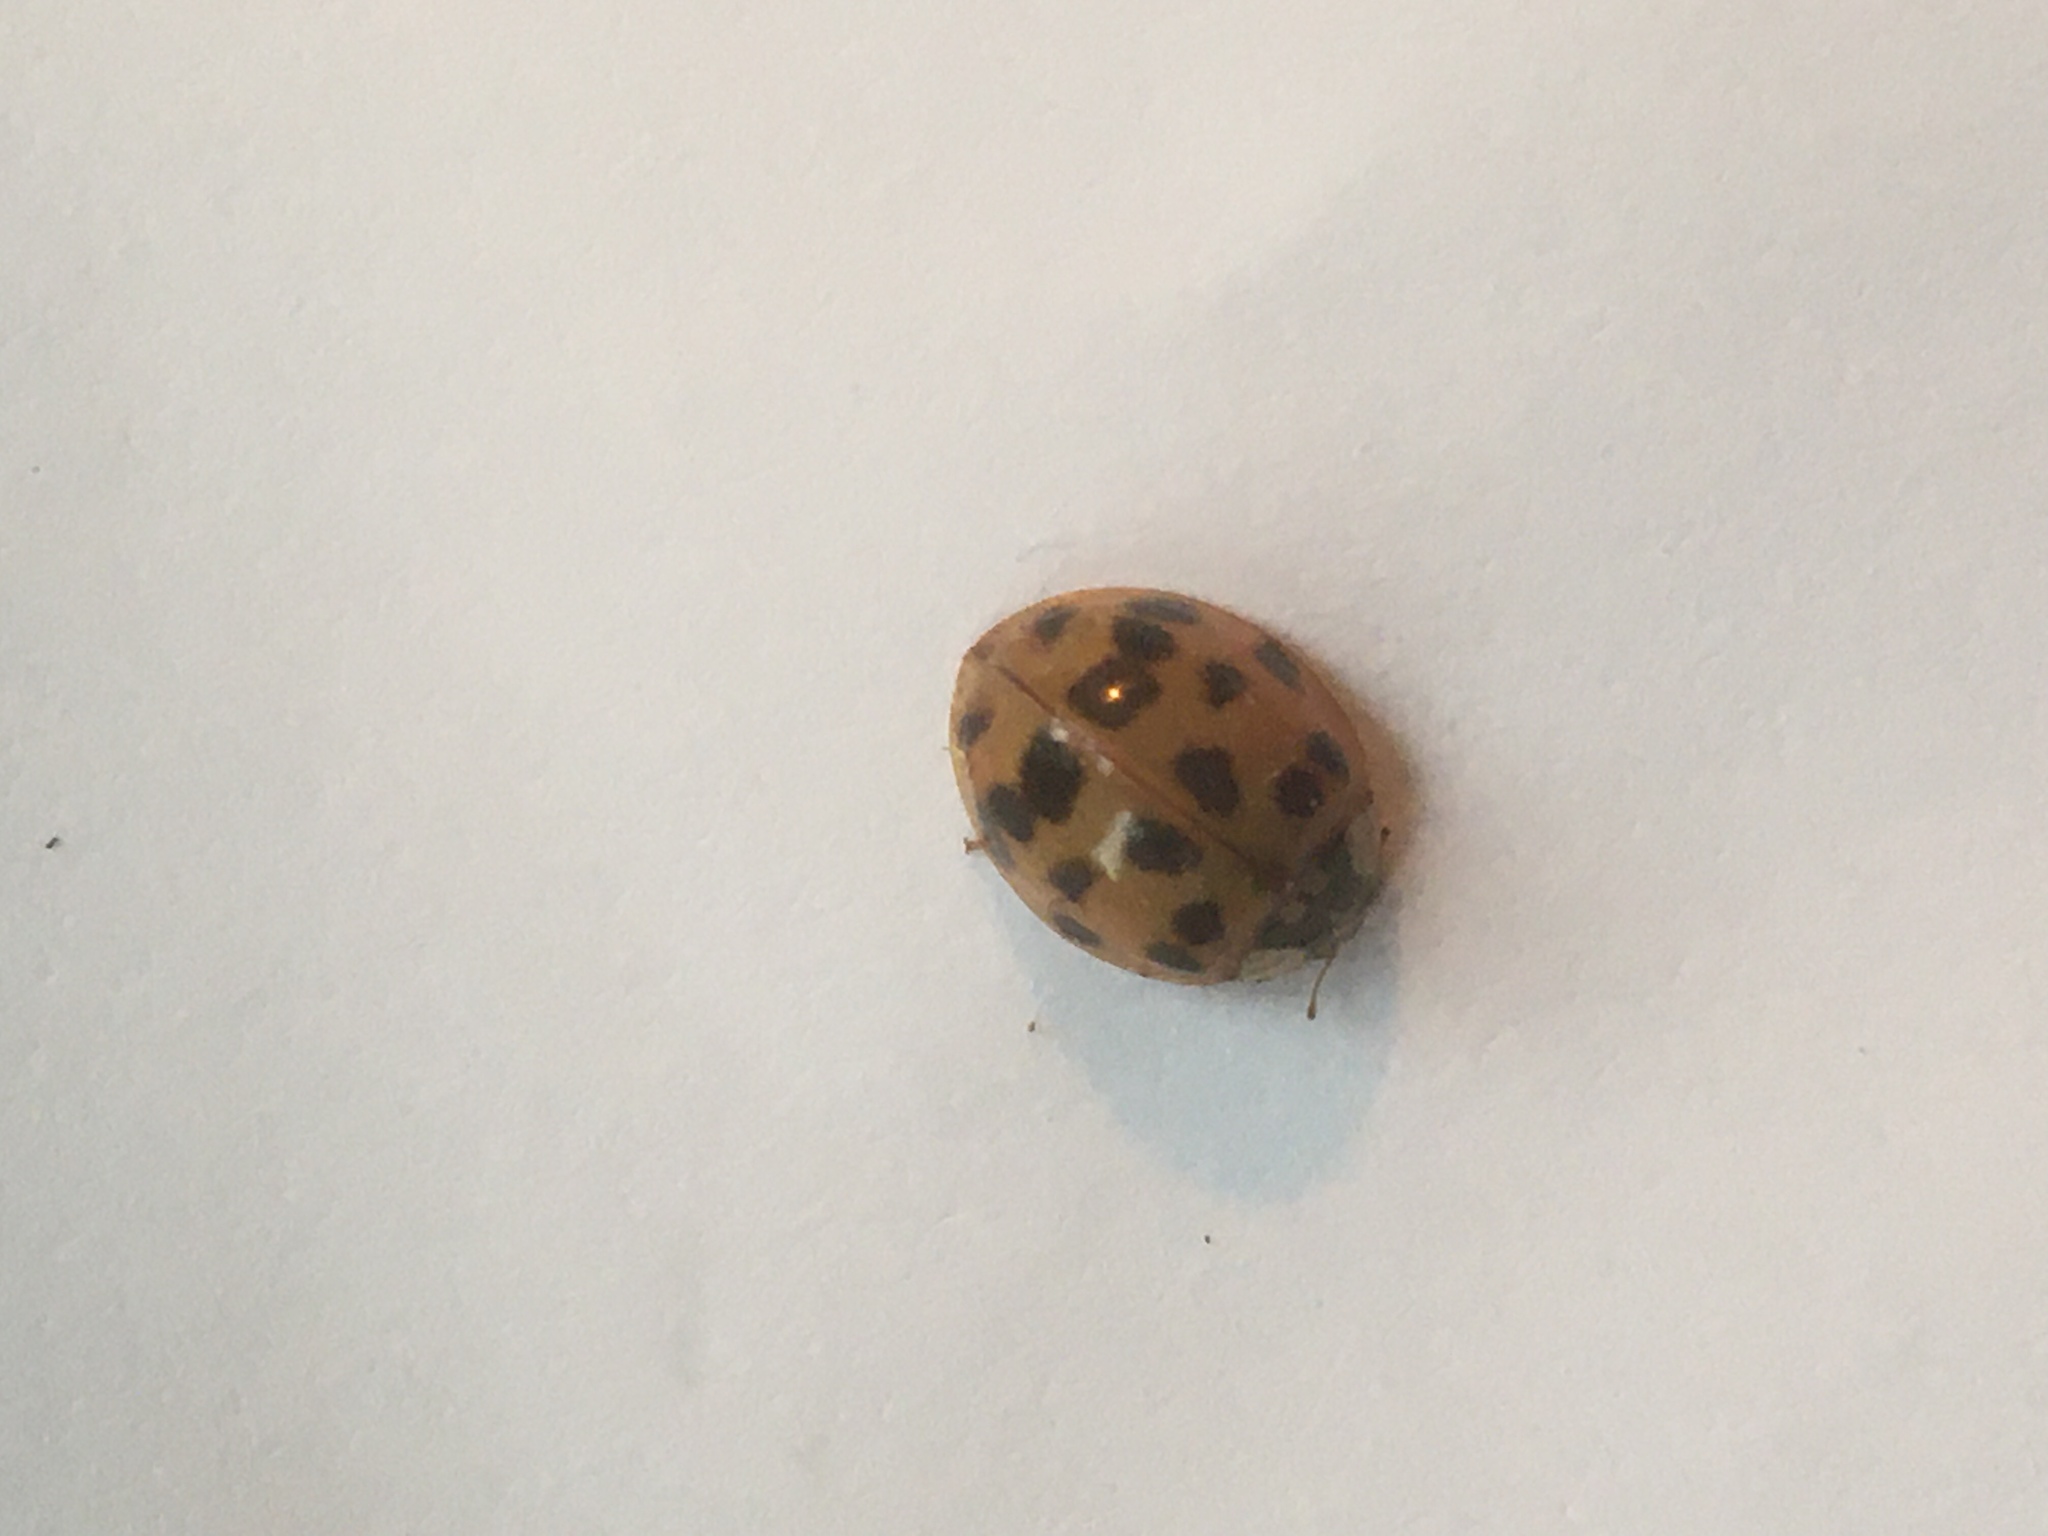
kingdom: Animalia
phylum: Arthropoda
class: Insecta
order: Coleoptera
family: Coccinellidae
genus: Harmonia
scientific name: Harmonia axyridis
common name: Harlequin ladybird
